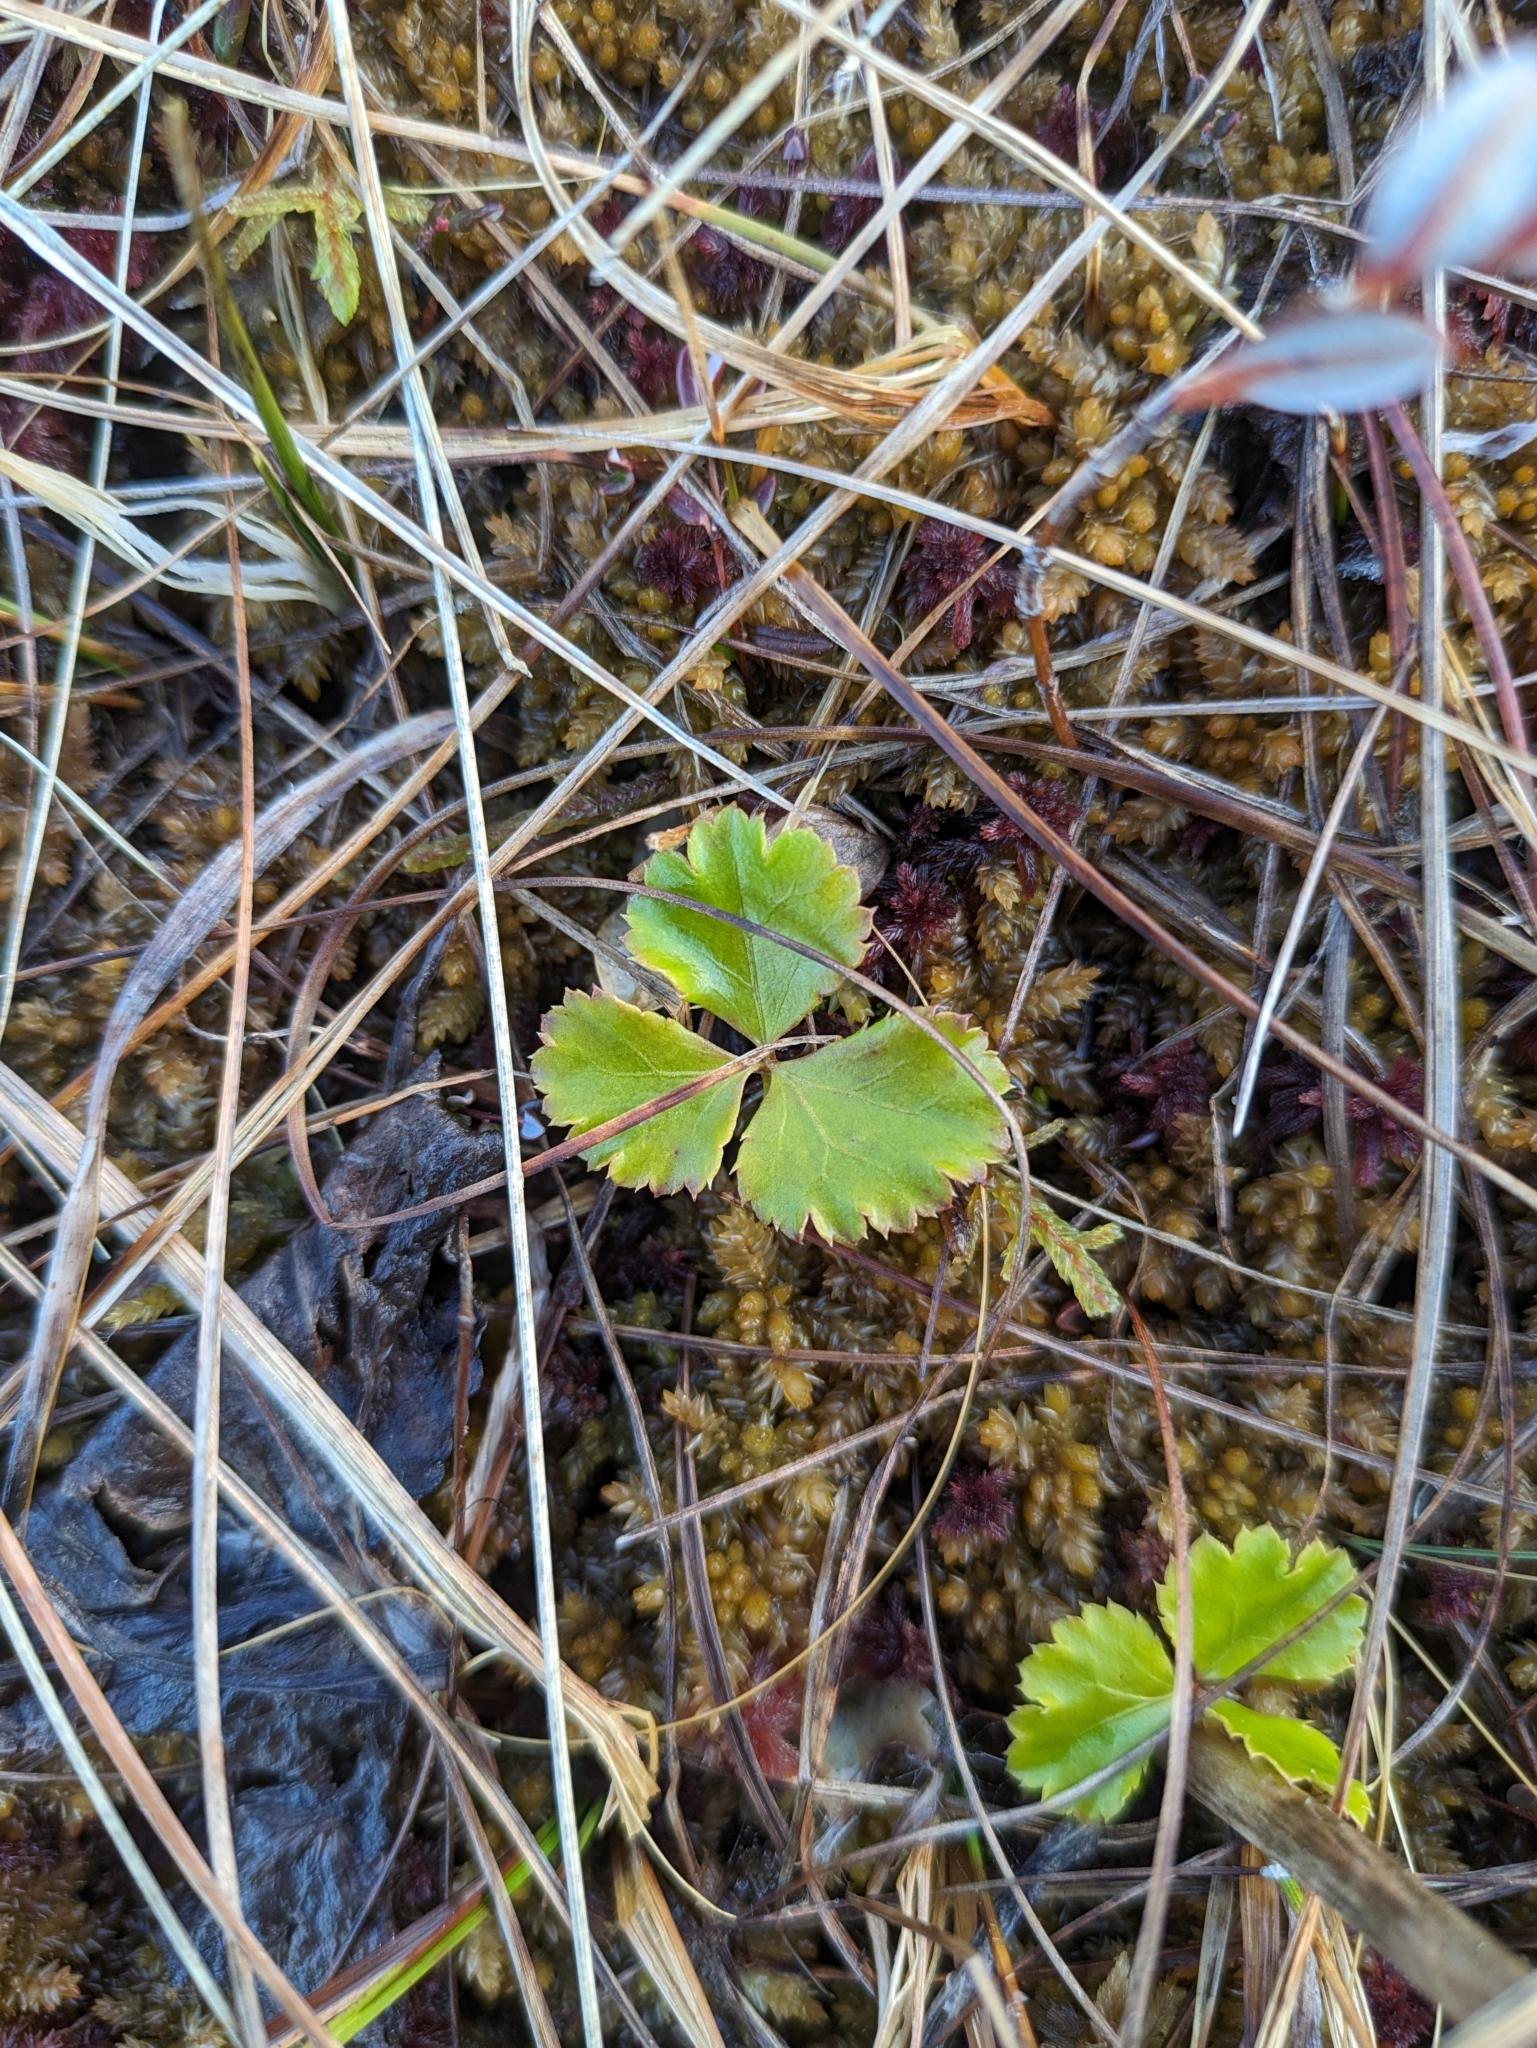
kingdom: Plantae
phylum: Tracheophyta
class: Magnoliopsida
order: Ranunculales
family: Ranunculaceae
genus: Coptis
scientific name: Coptis trifolia
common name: Canker-root
